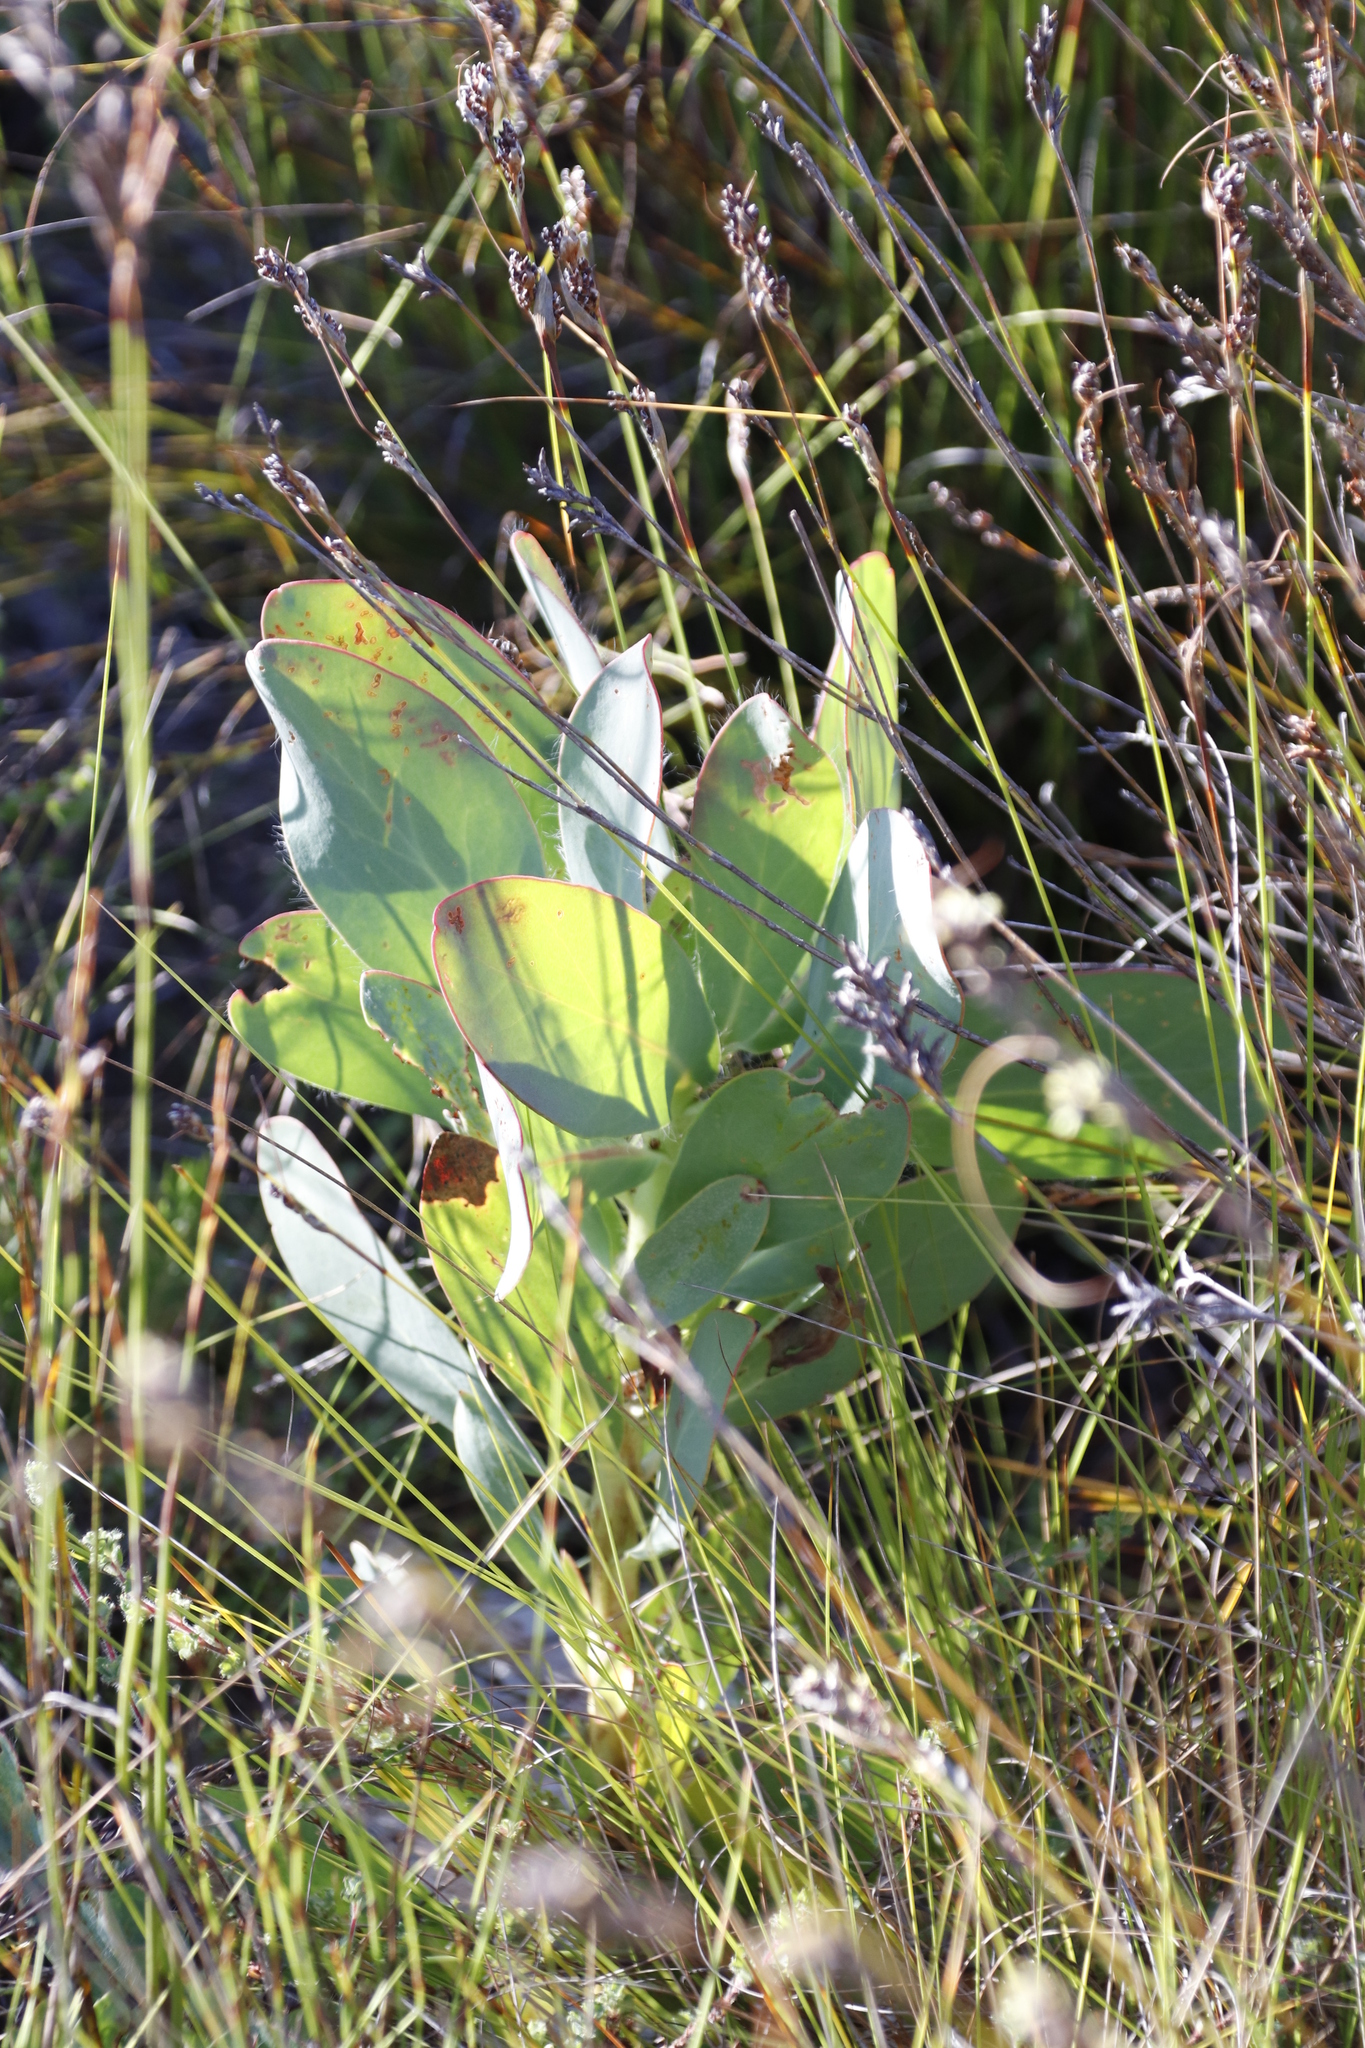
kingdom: Plantae
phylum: Tracheophyta
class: Magnoliopsida
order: Proteales
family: Proteaceae
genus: Protea
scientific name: Protea grandiceps
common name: Red sugarbush
